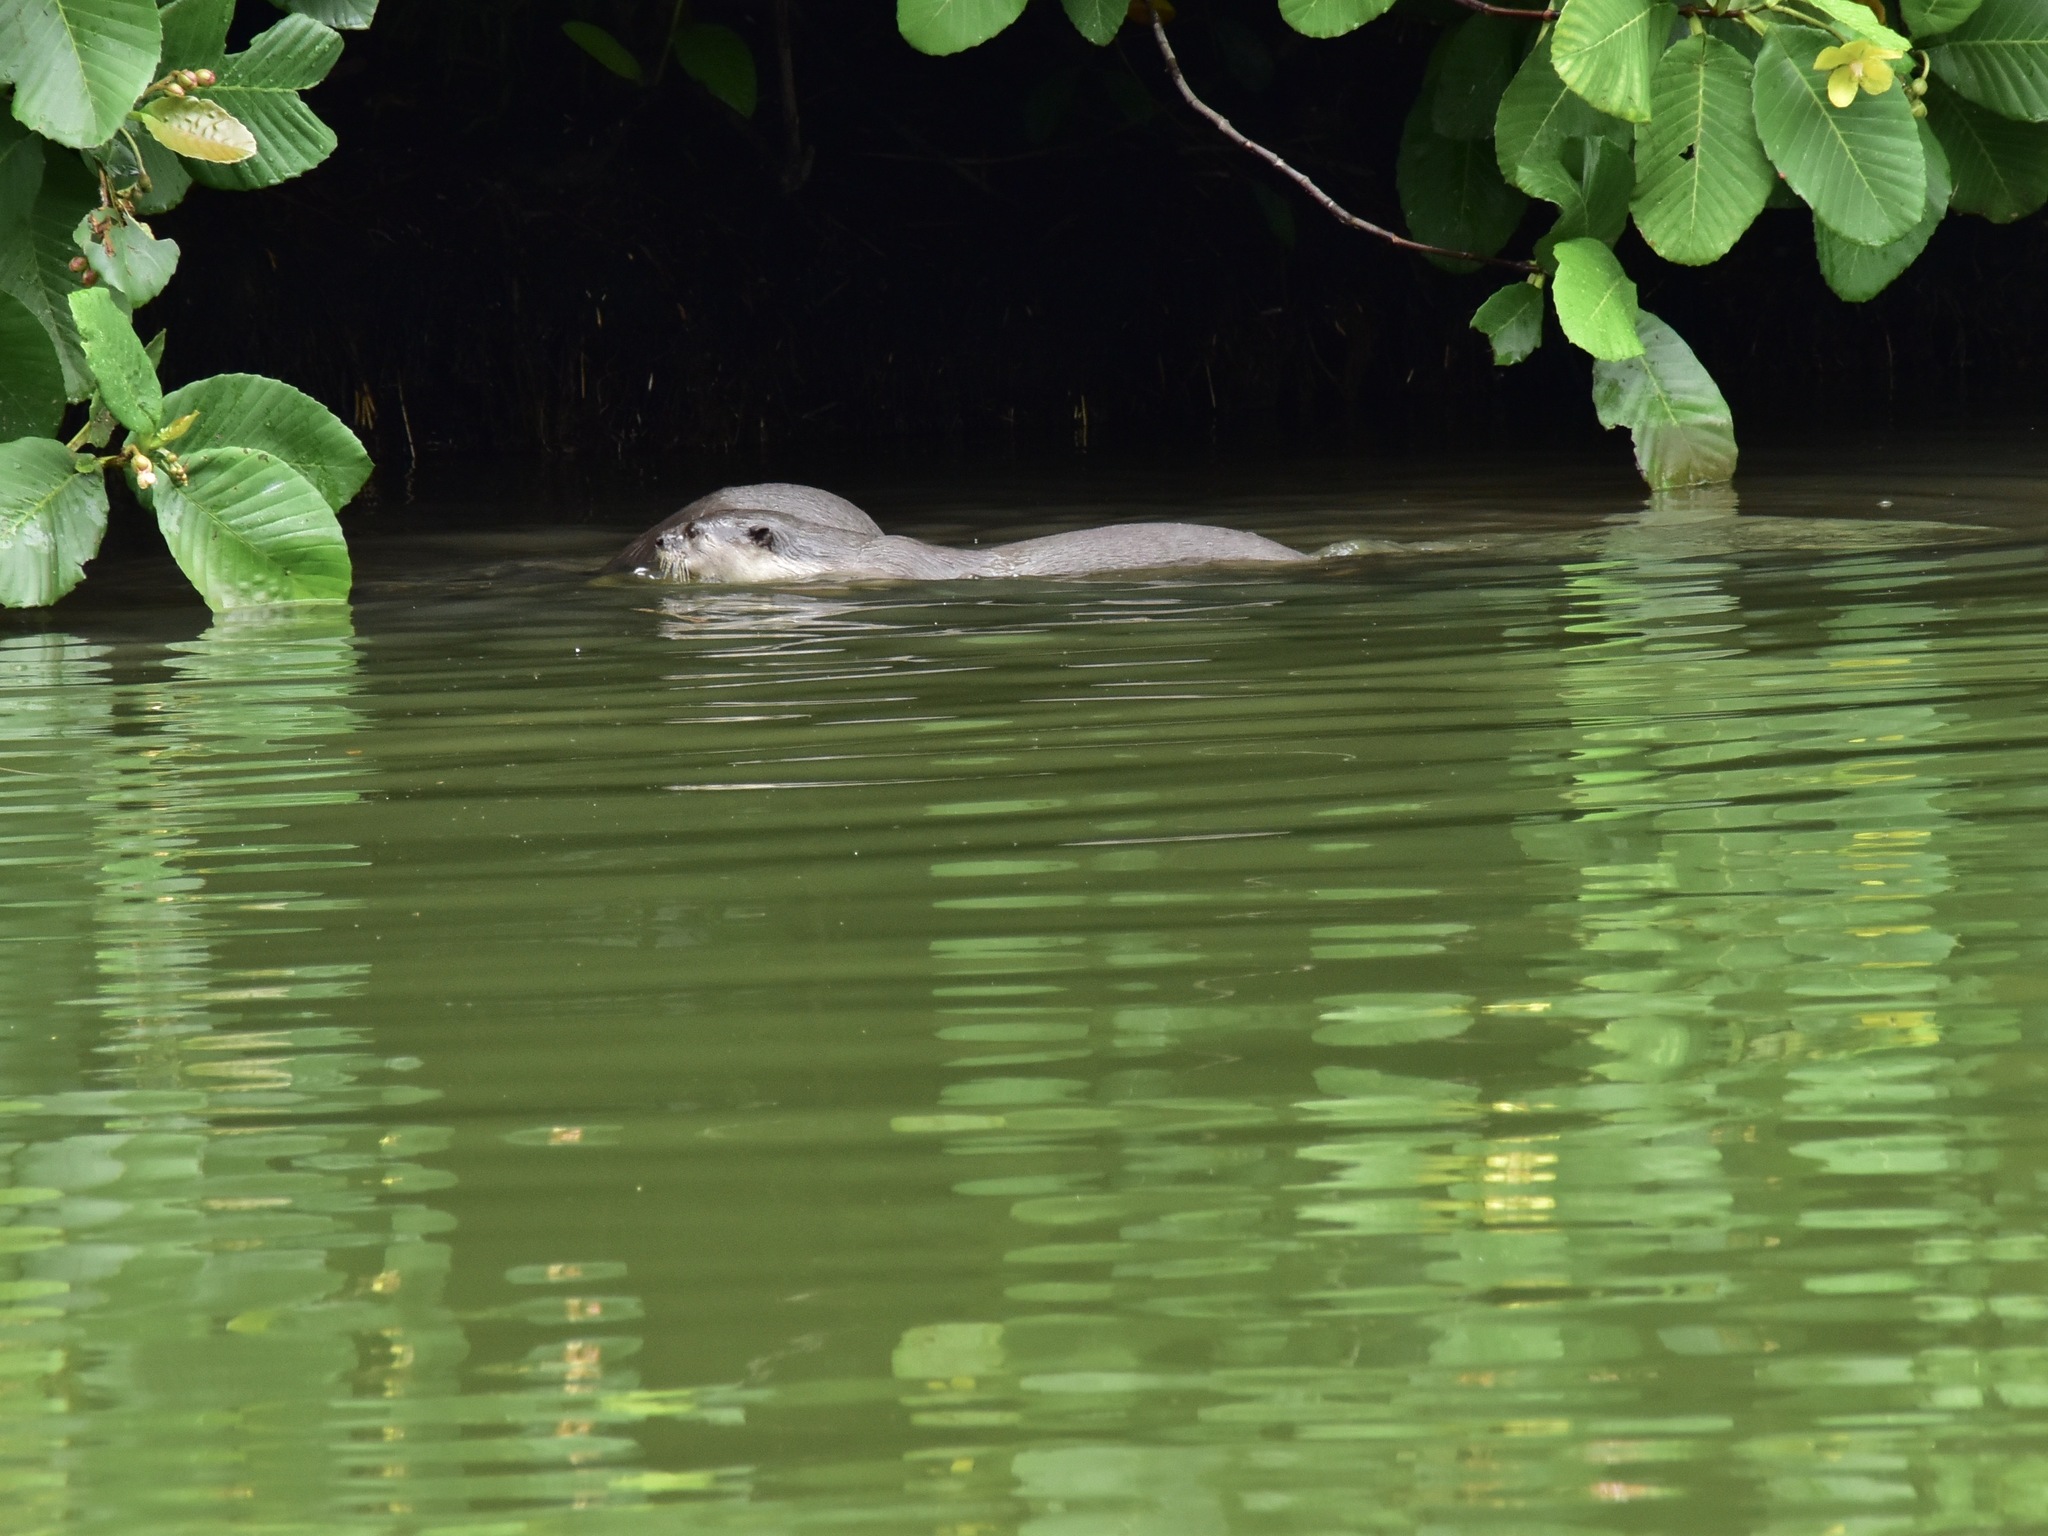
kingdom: Animalia
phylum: Chordata
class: Mammalia
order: Carnivora
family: Mustelidae
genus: Lutrogale
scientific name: Lutrogale perspicillata
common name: Smooth-coated otter
